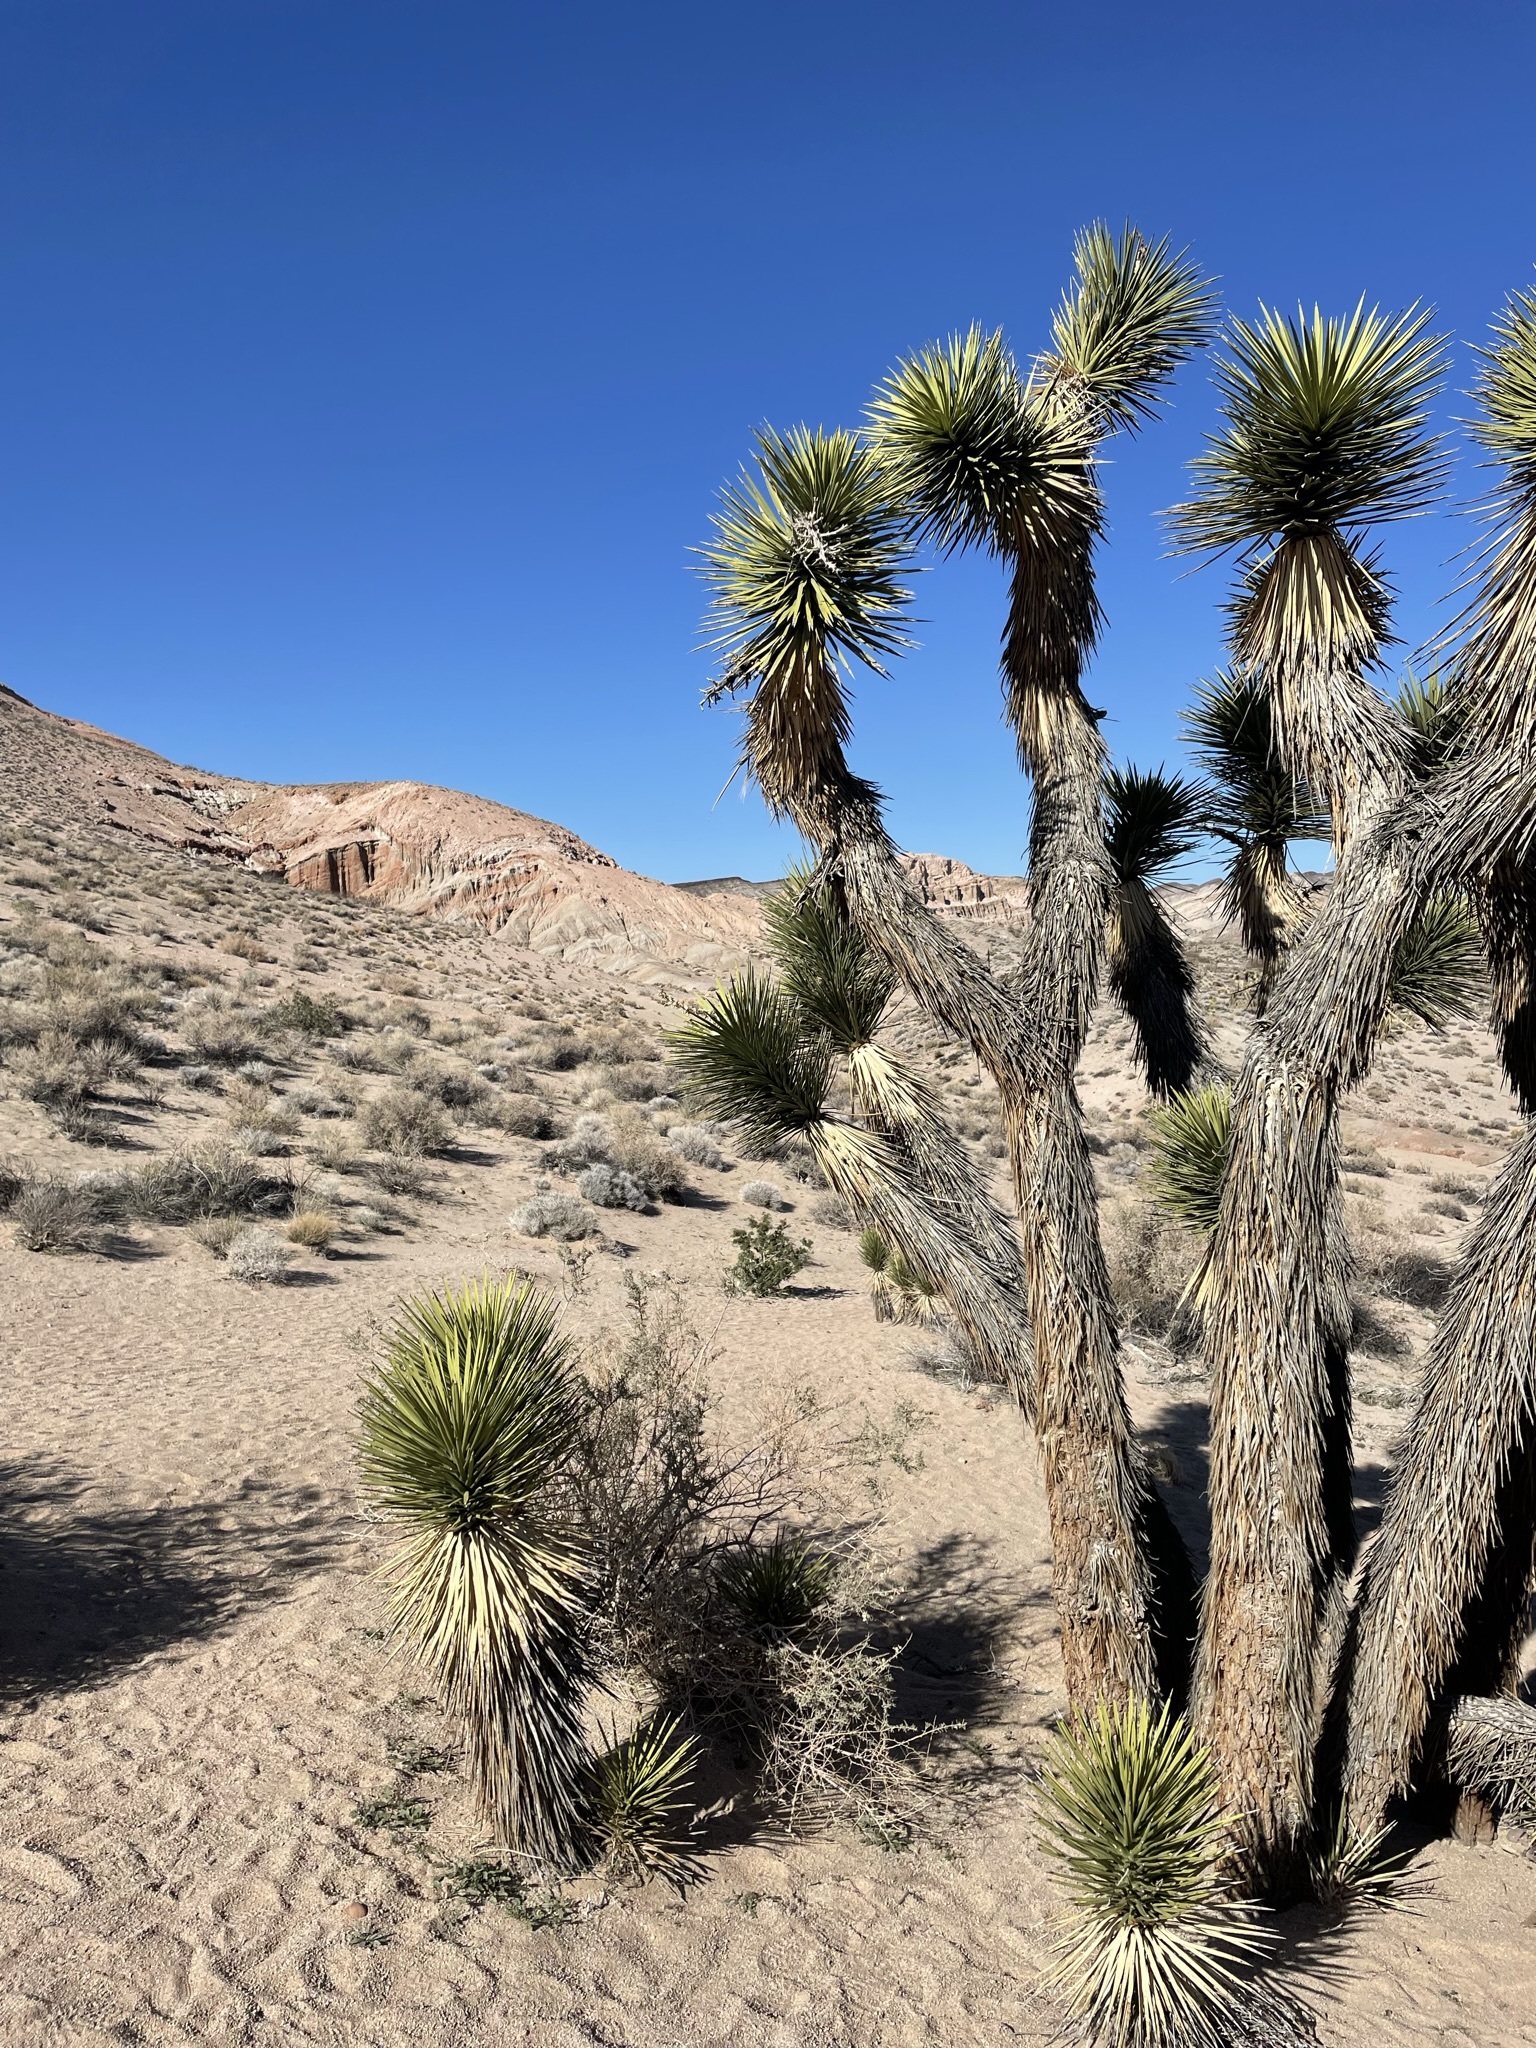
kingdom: Plantae
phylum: Tracheophyta
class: Liliopsida
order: Asparagales
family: Asparagaceae
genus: Yucca
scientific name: Yucca brevifolia
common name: Joshua tree
